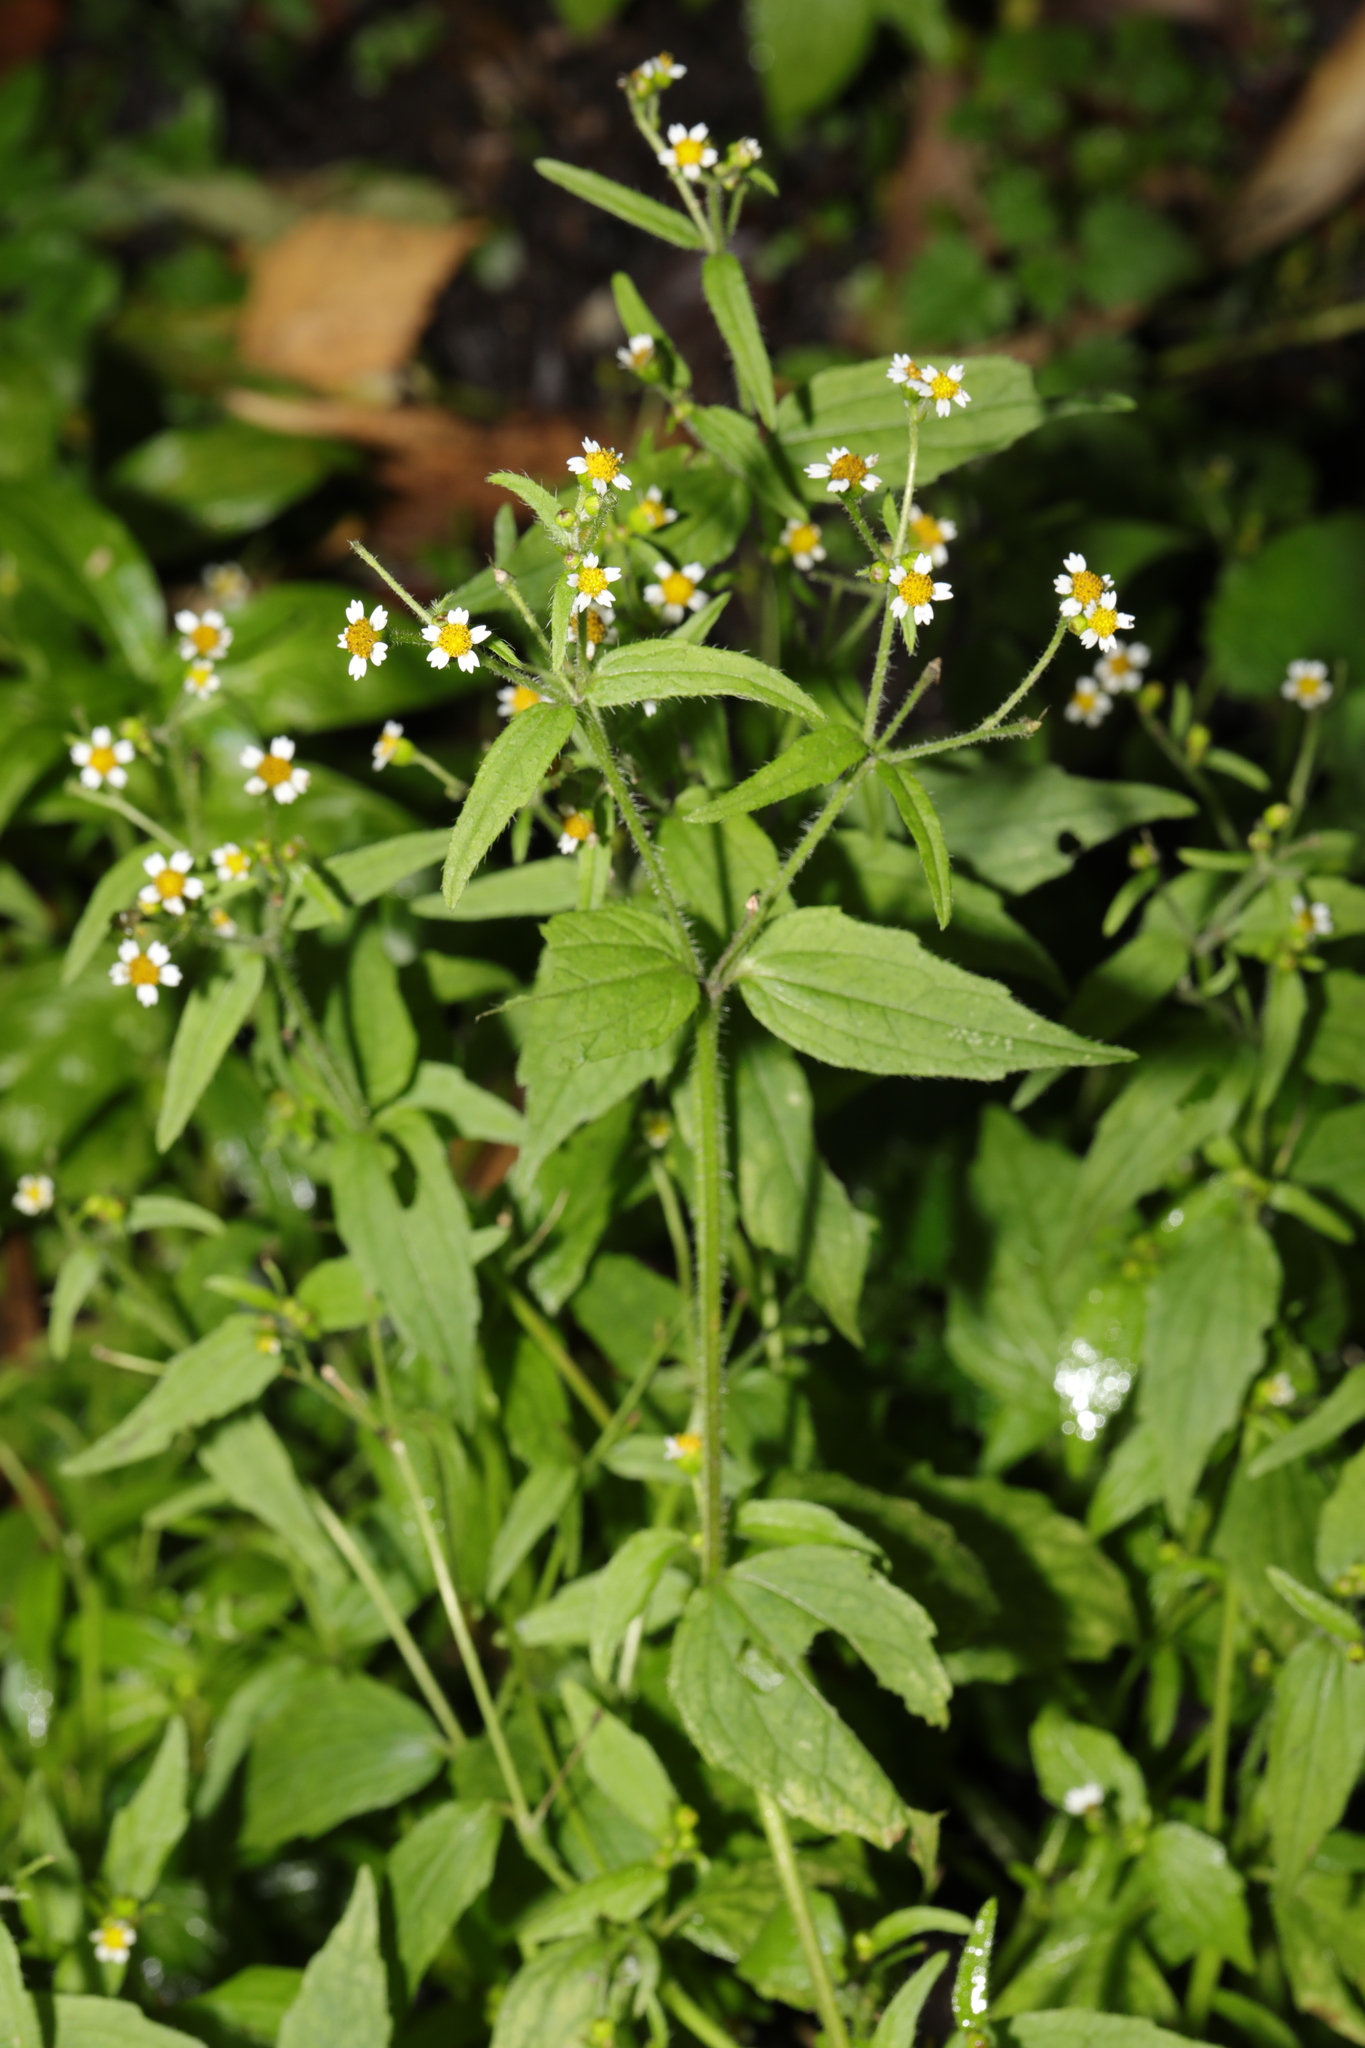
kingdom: Plantae
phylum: Tracheophyta
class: Magnoliopsida
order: Asterales
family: Asteraceae
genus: Galinsoga
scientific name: Galinsoga quadriradiata
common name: Shaggy soldier
